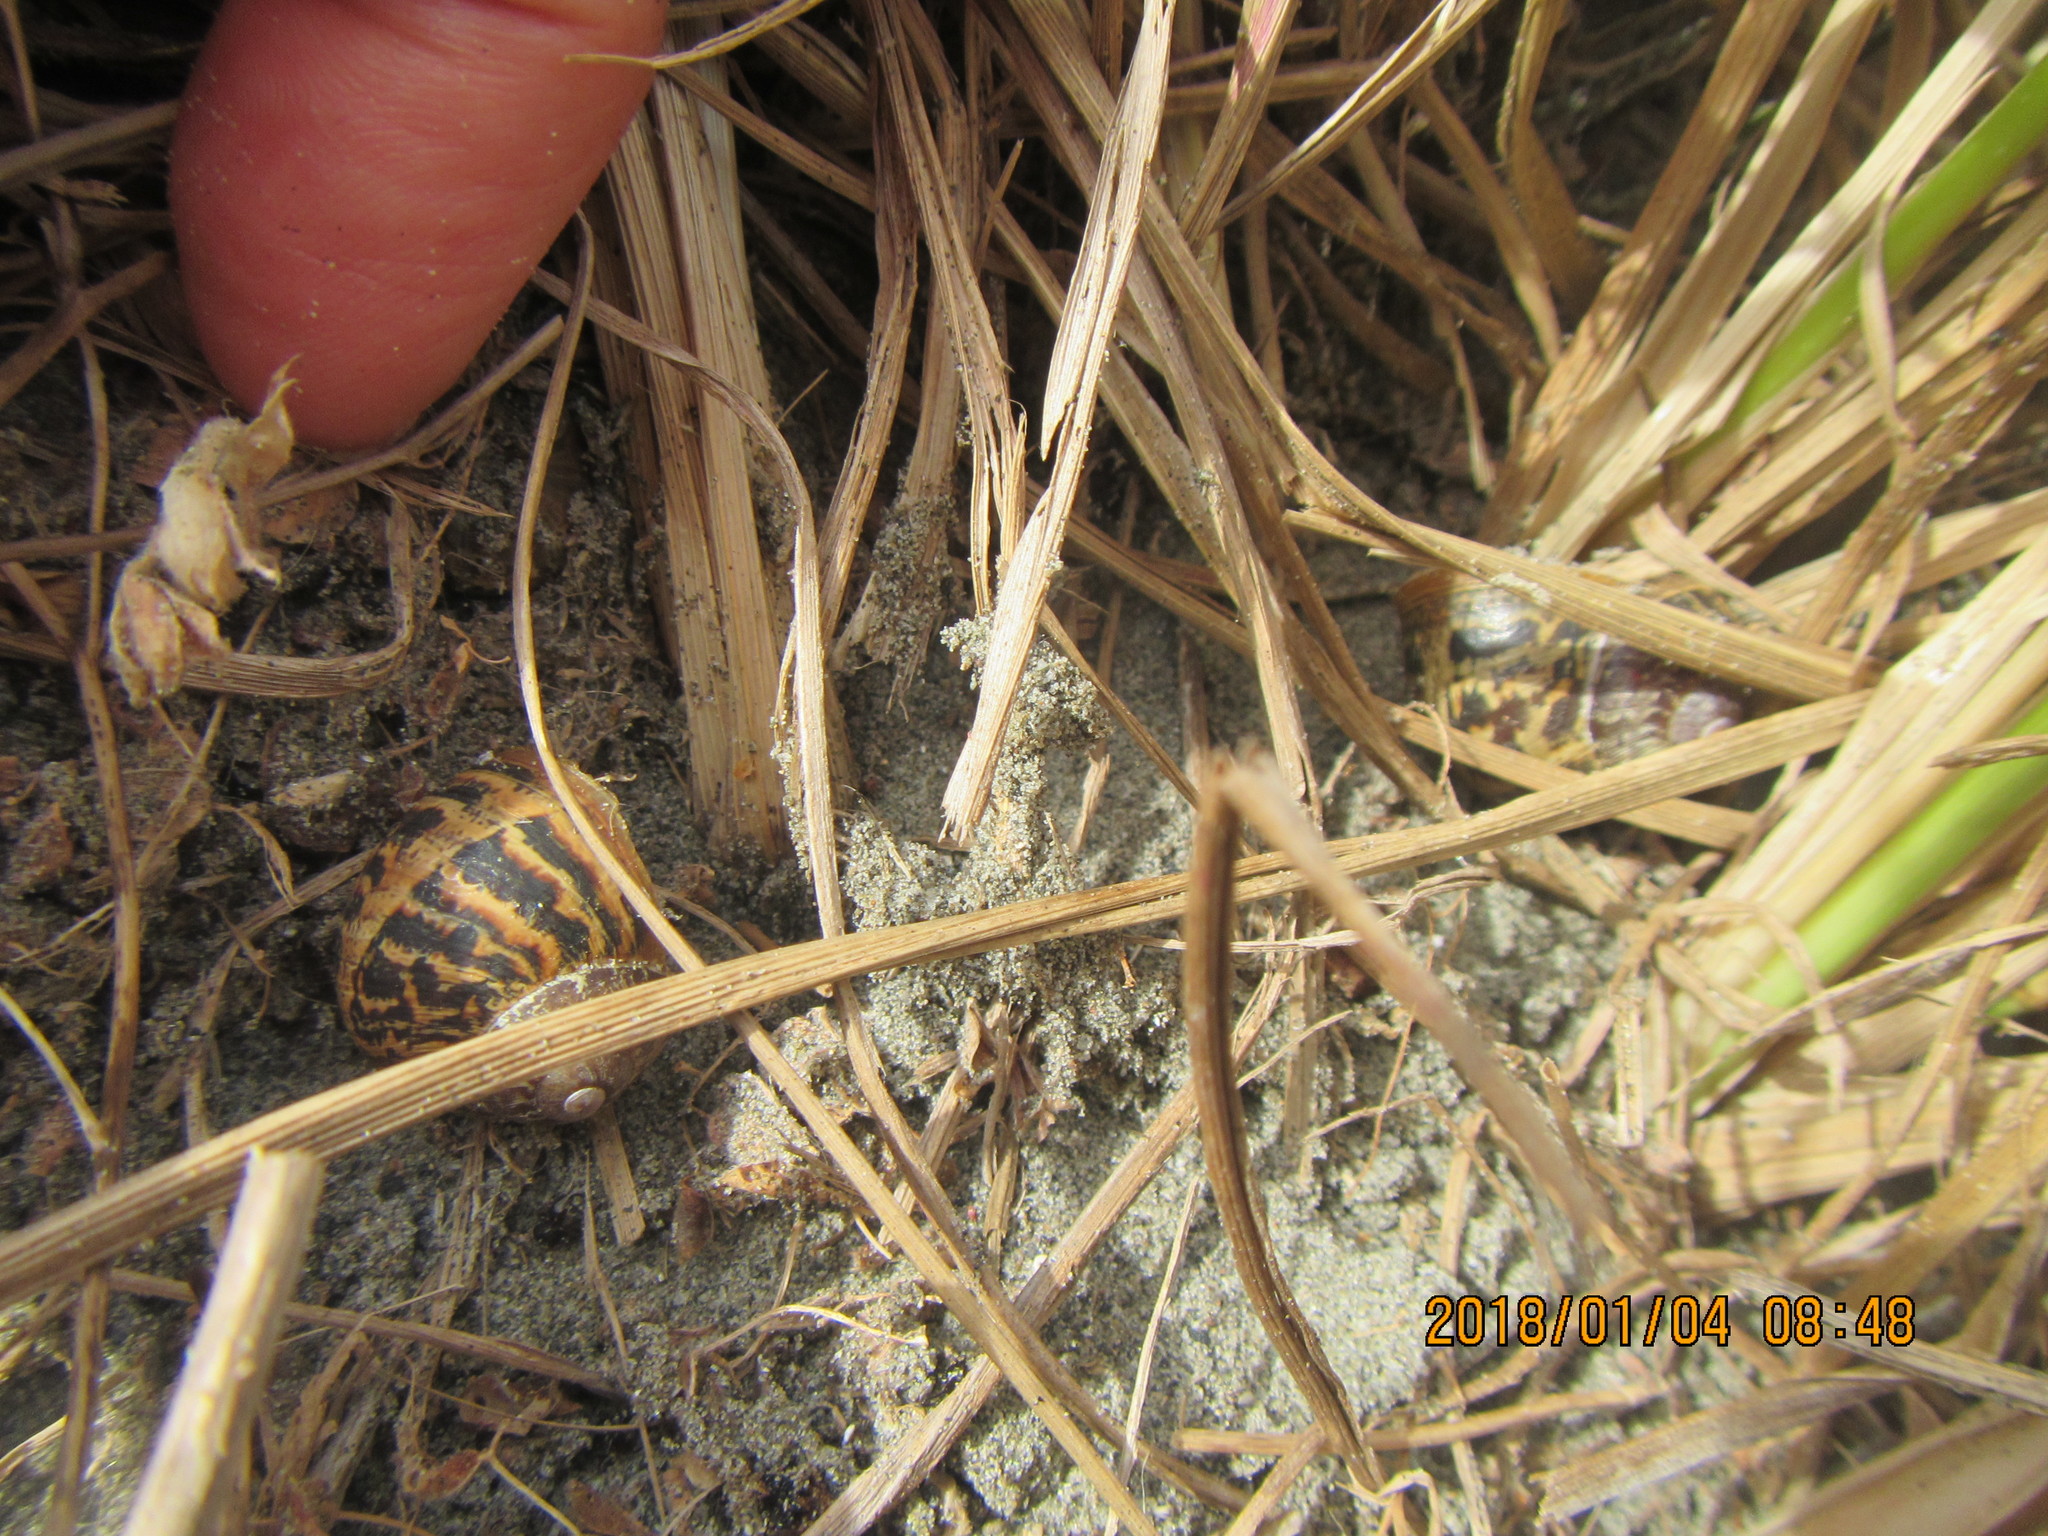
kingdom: Animalia
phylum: Mollusca
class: Gastropoda
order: Stylommatophora
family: Helicidae
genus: Cornu
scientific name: Cornu aspersum
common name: Brown garden snail
